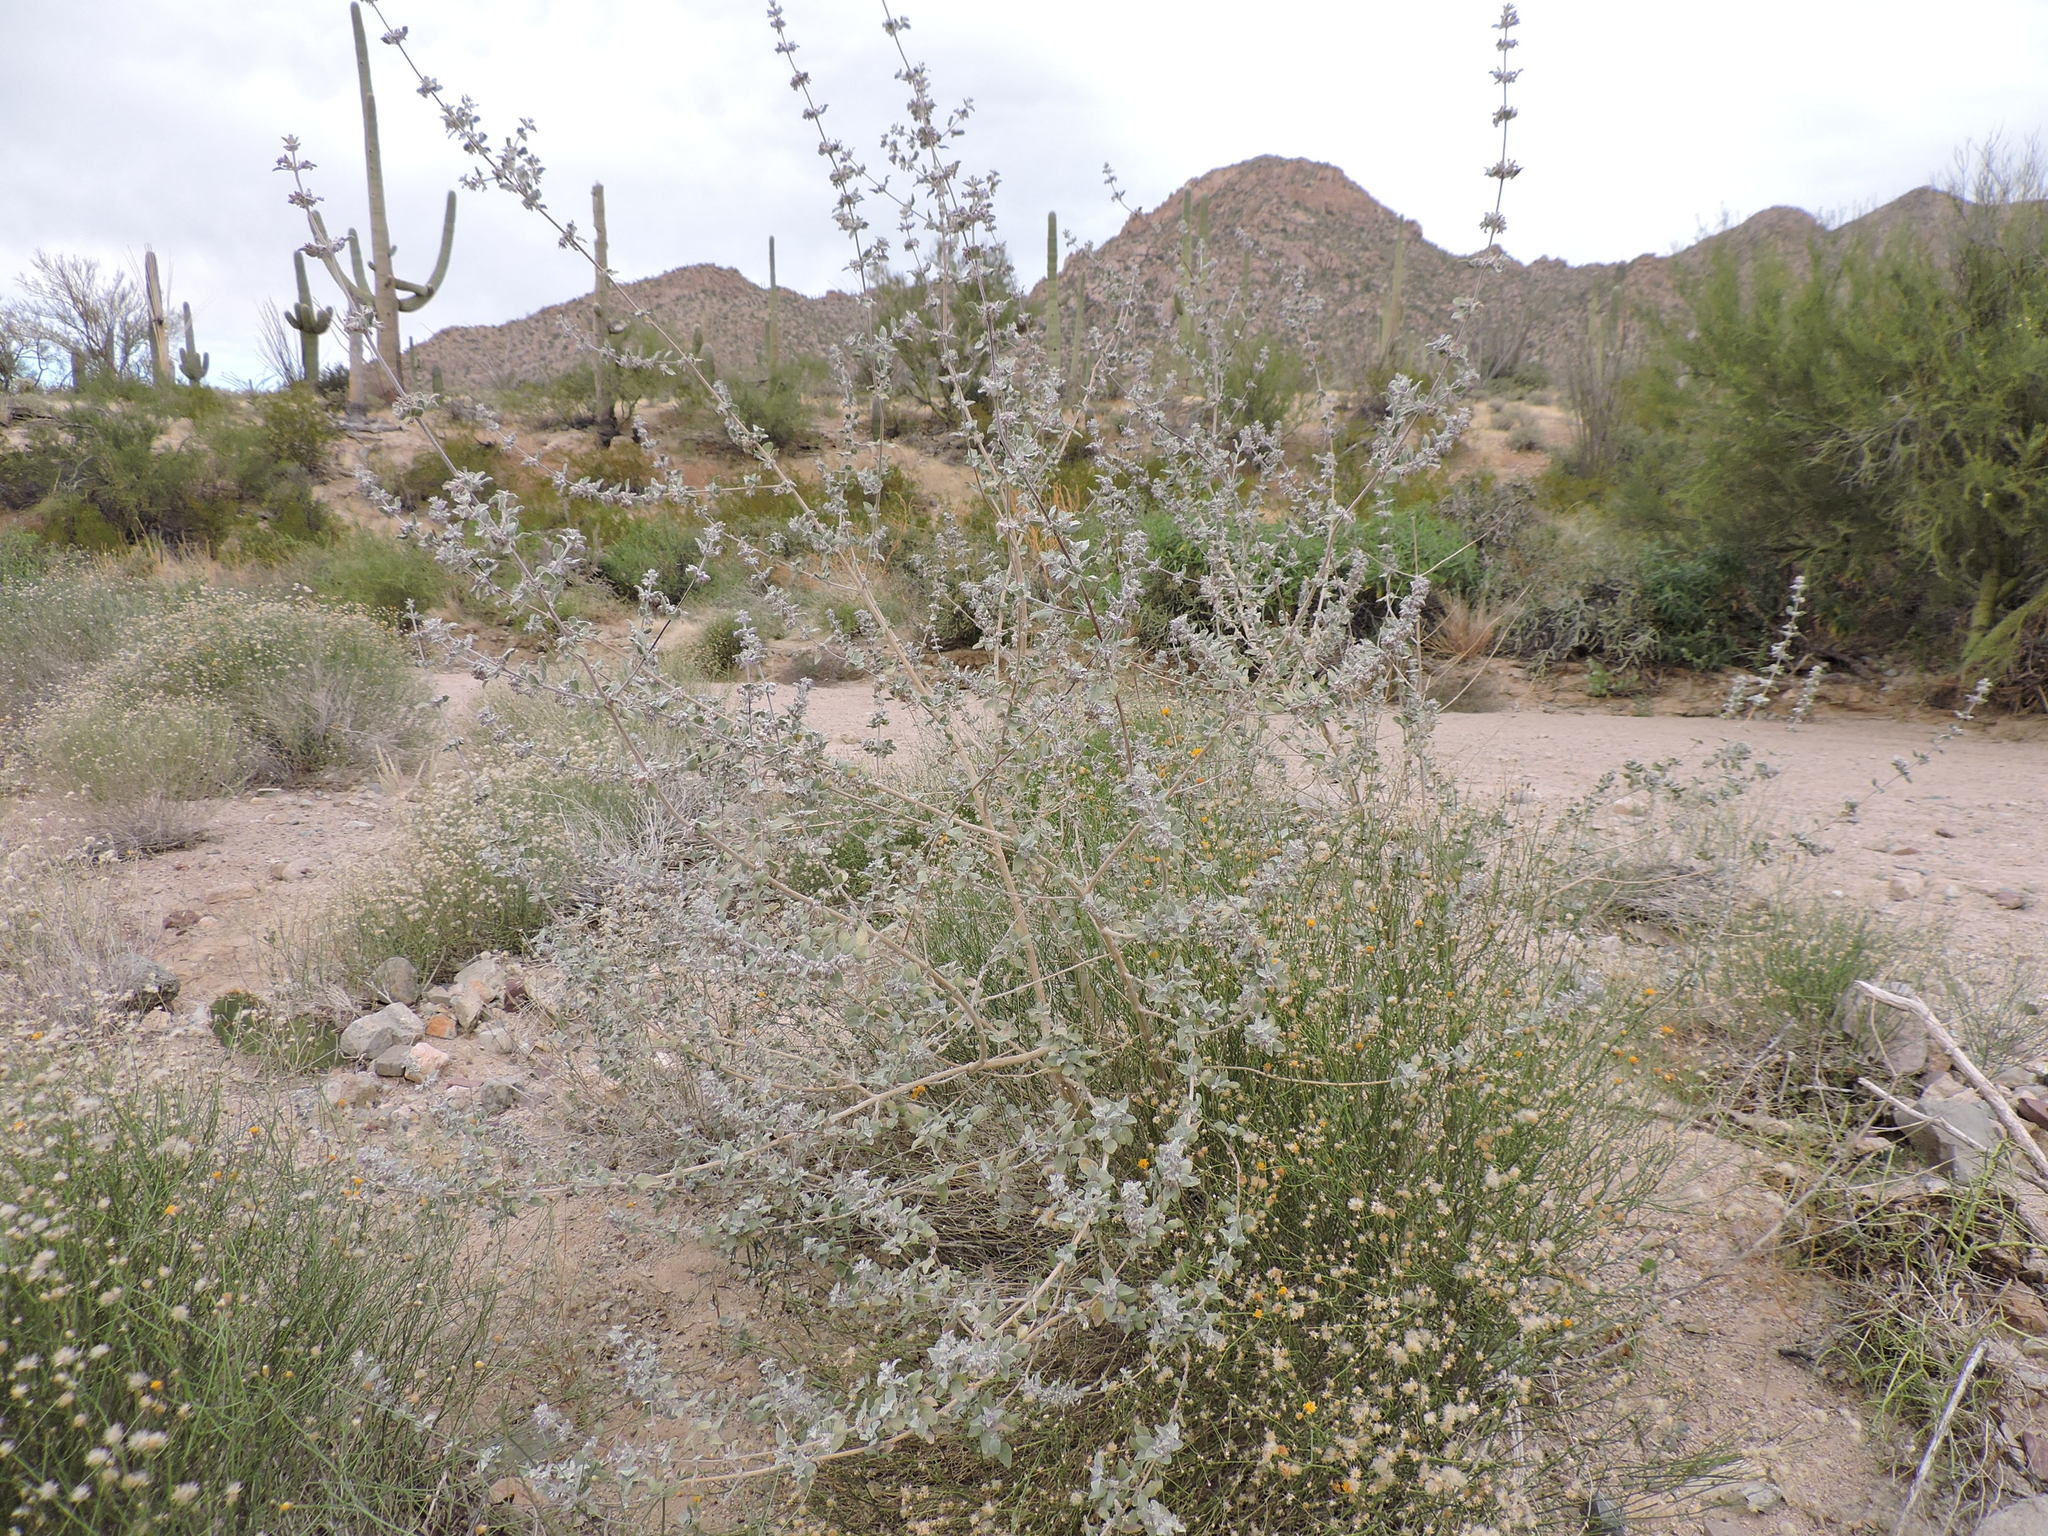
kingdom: Plantae
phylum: Tracheophyta
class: Magnoliopsida
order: Lamiales
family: Lamiaceae
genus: Condea
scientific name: Condea emoryi
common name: Chia
